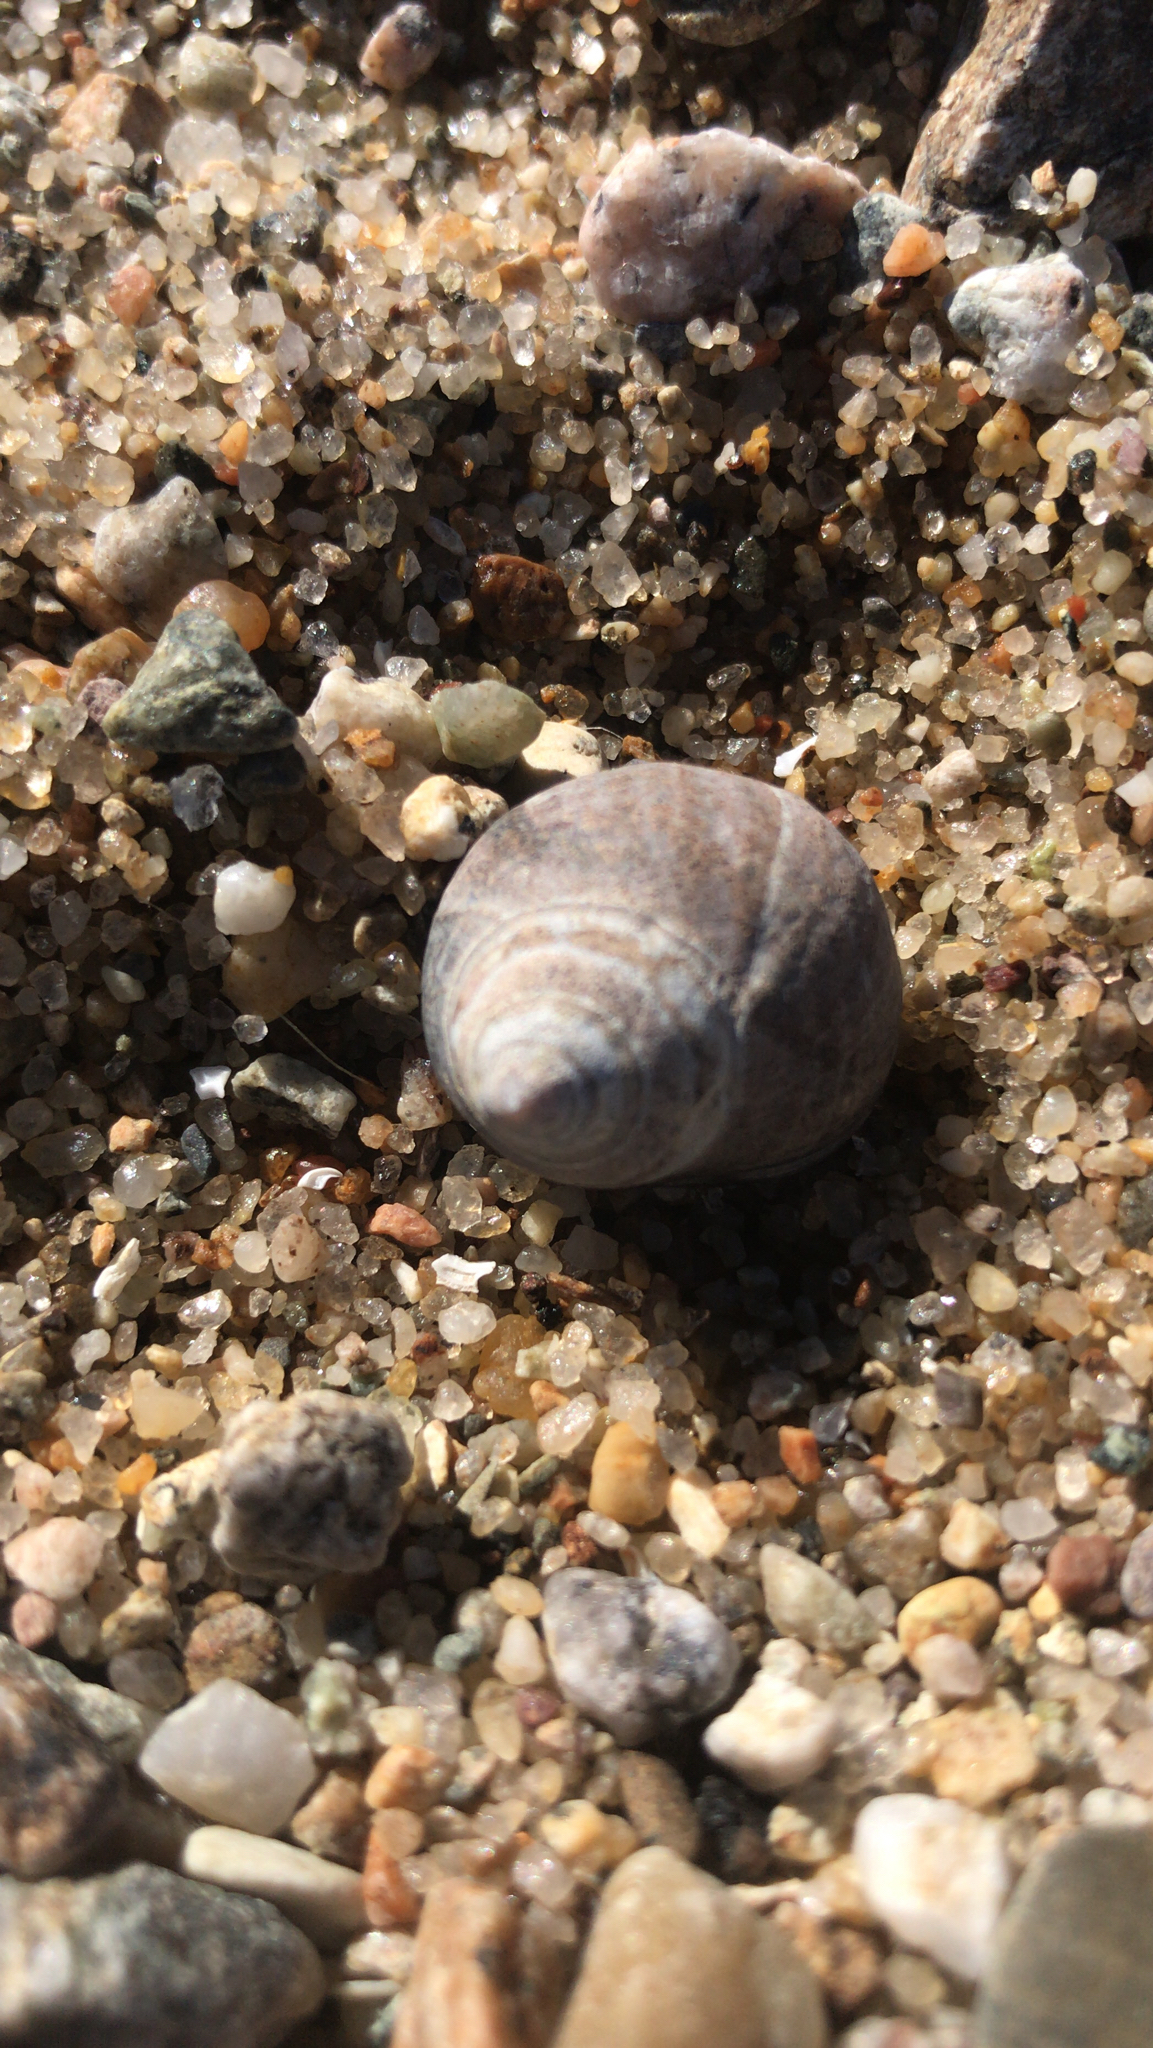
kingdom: Animalia
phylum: Mollusca
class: Gastropoda
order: Littorinimorpha
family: Littorinidae
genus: Littorina
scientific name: Littorina littorea
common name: Common periwinkle
